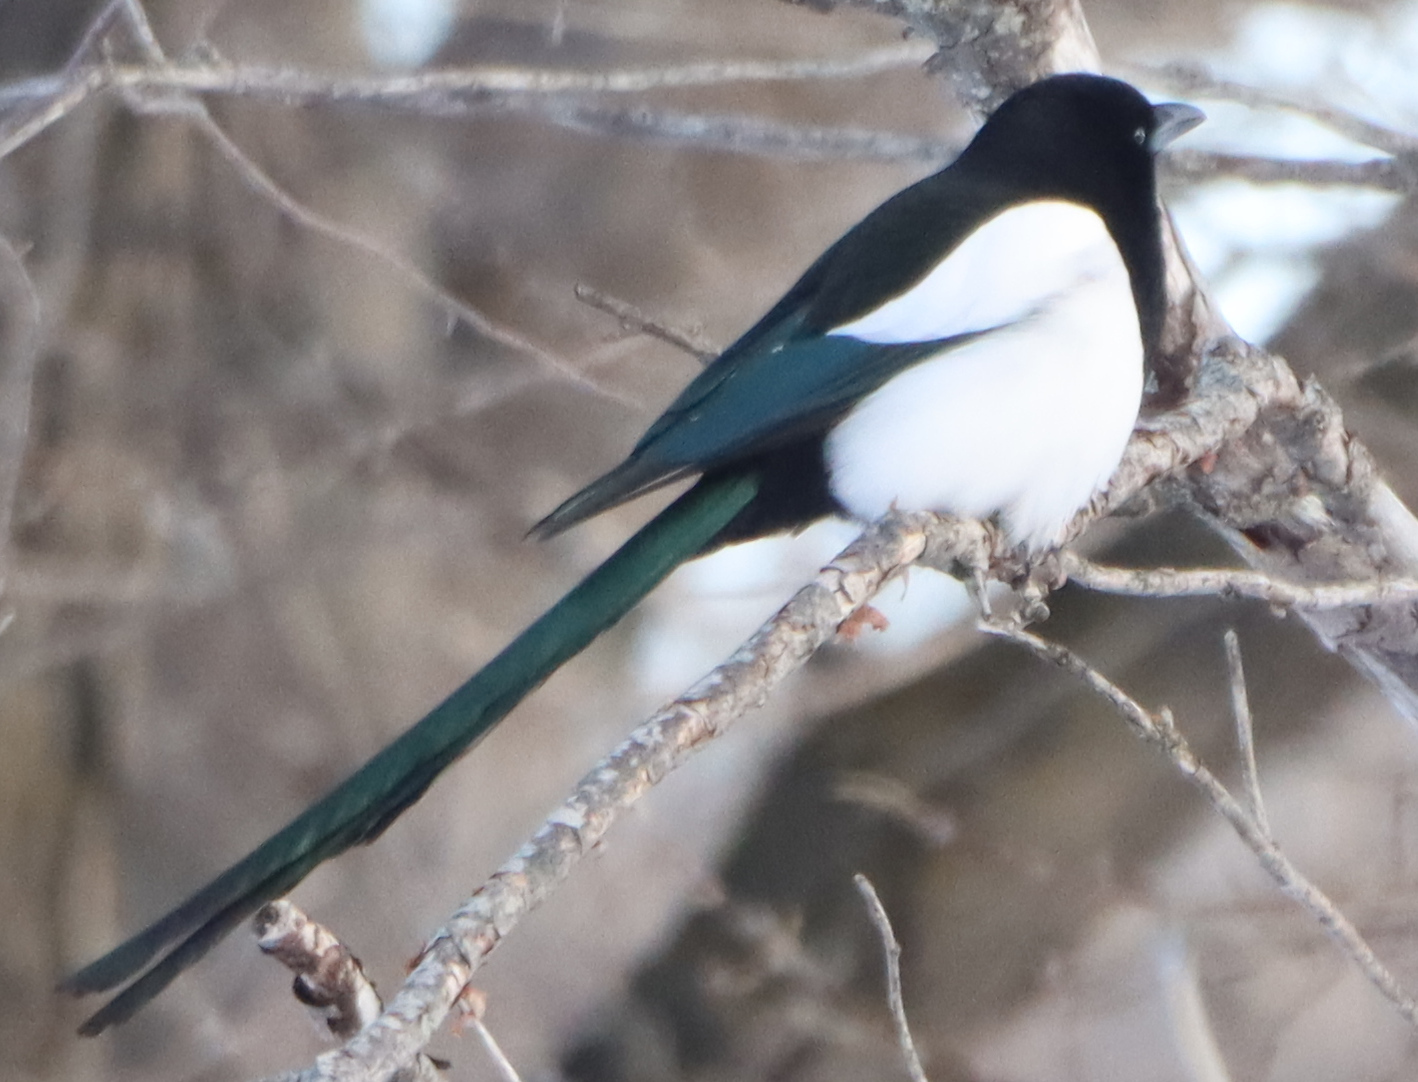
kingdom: Animalia
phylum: Chordata
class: Aves
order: Passeriformes
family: Corvidae
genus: Pica
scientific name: Pica hudsonia
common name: Black-billed magpie
